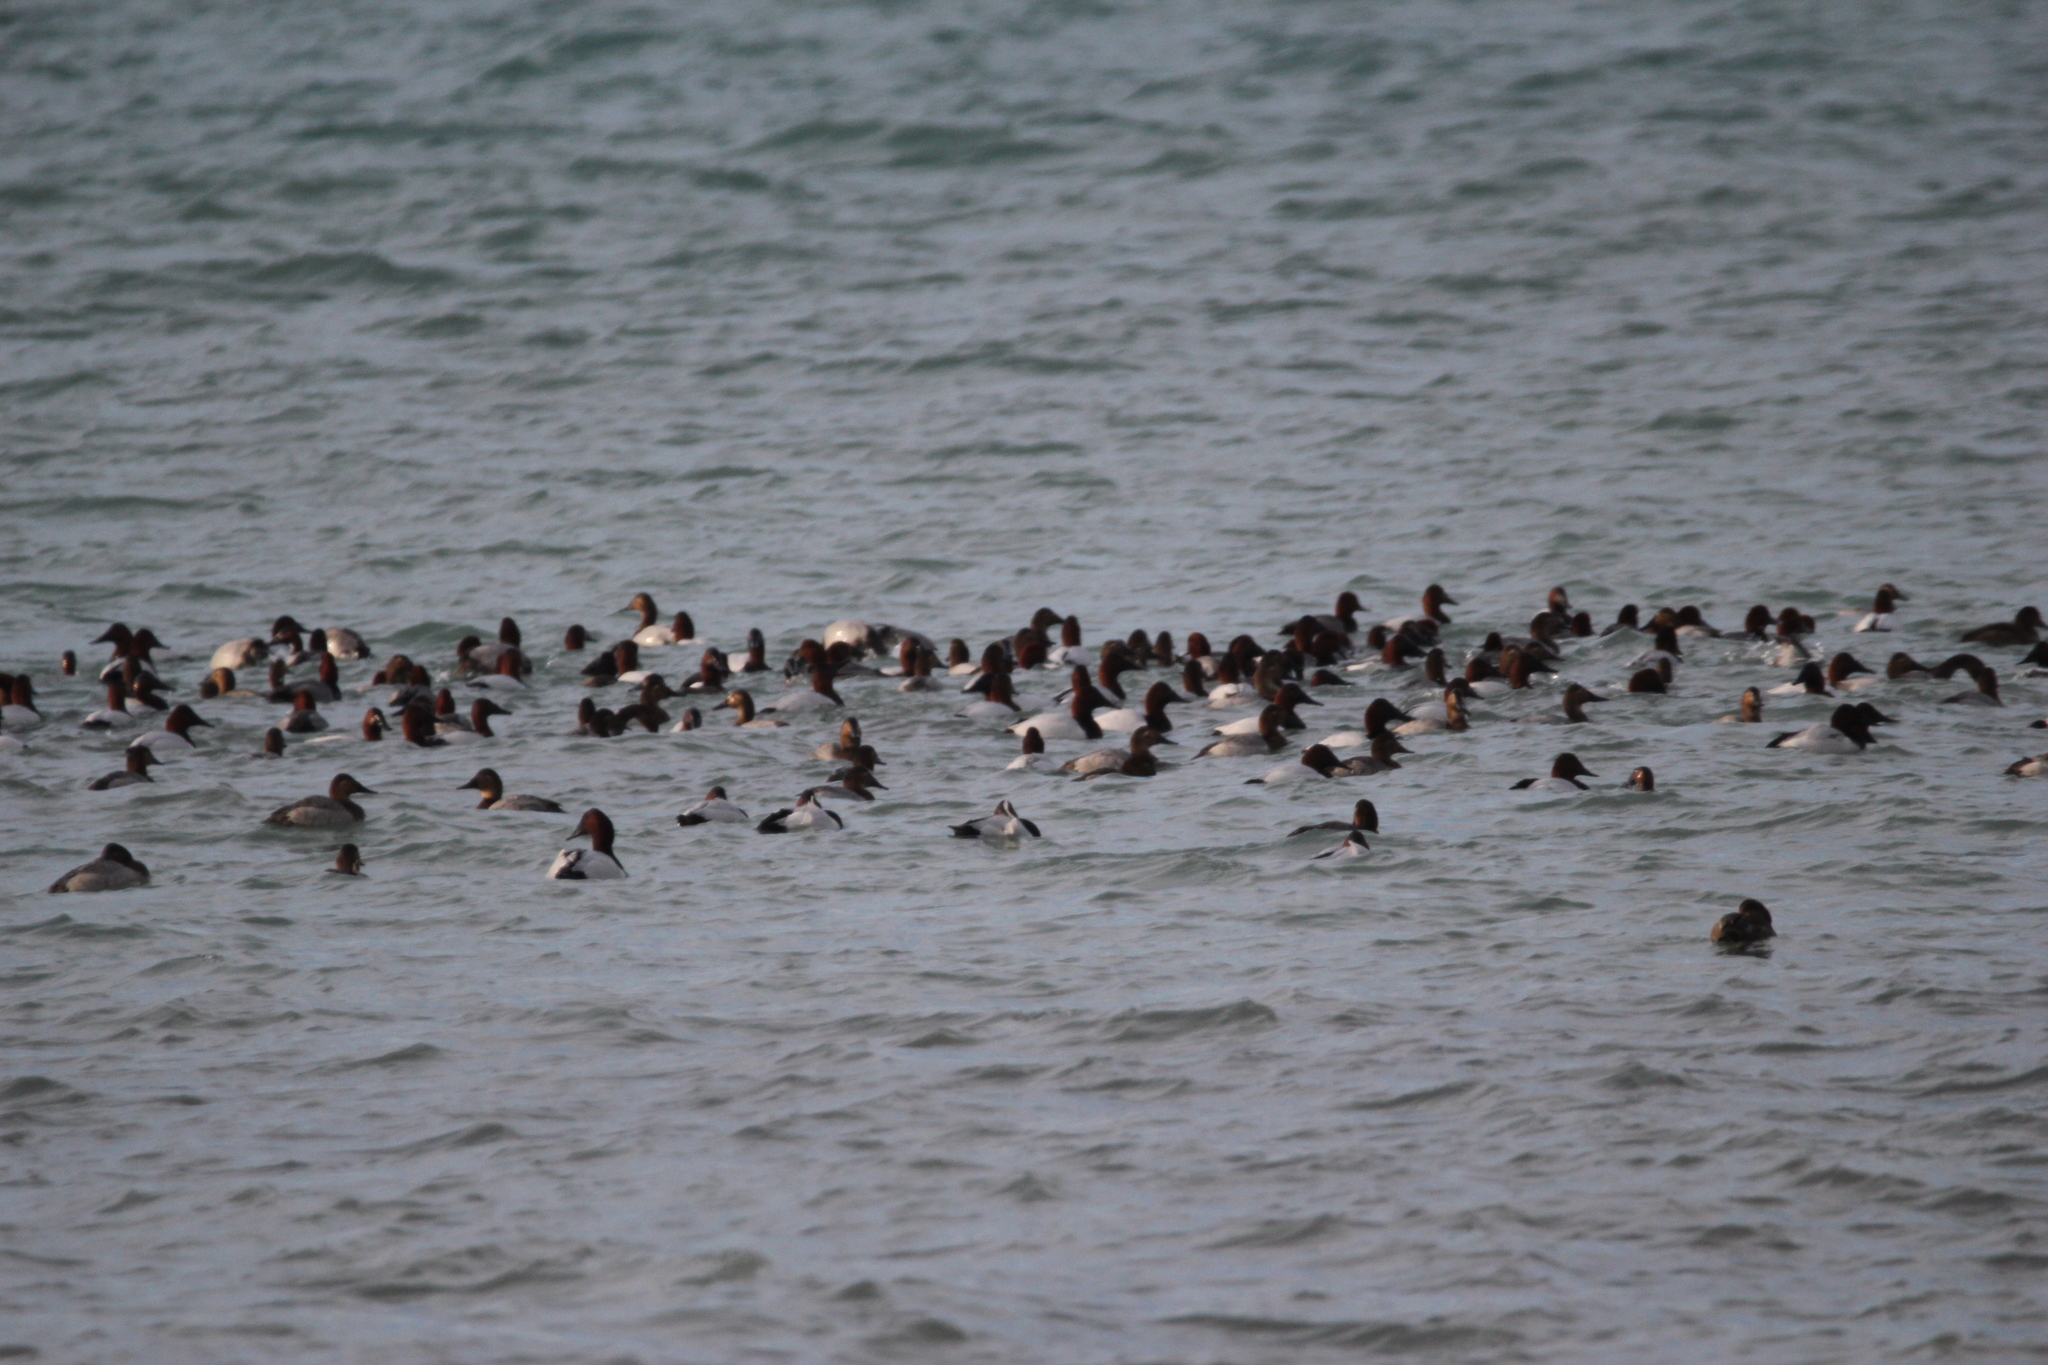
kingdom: Animalia
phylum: Chordata
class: Aves
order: Anseriformes
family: Anatidae
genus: Aythya
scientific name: Aythya valisineria
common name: Canvasback
